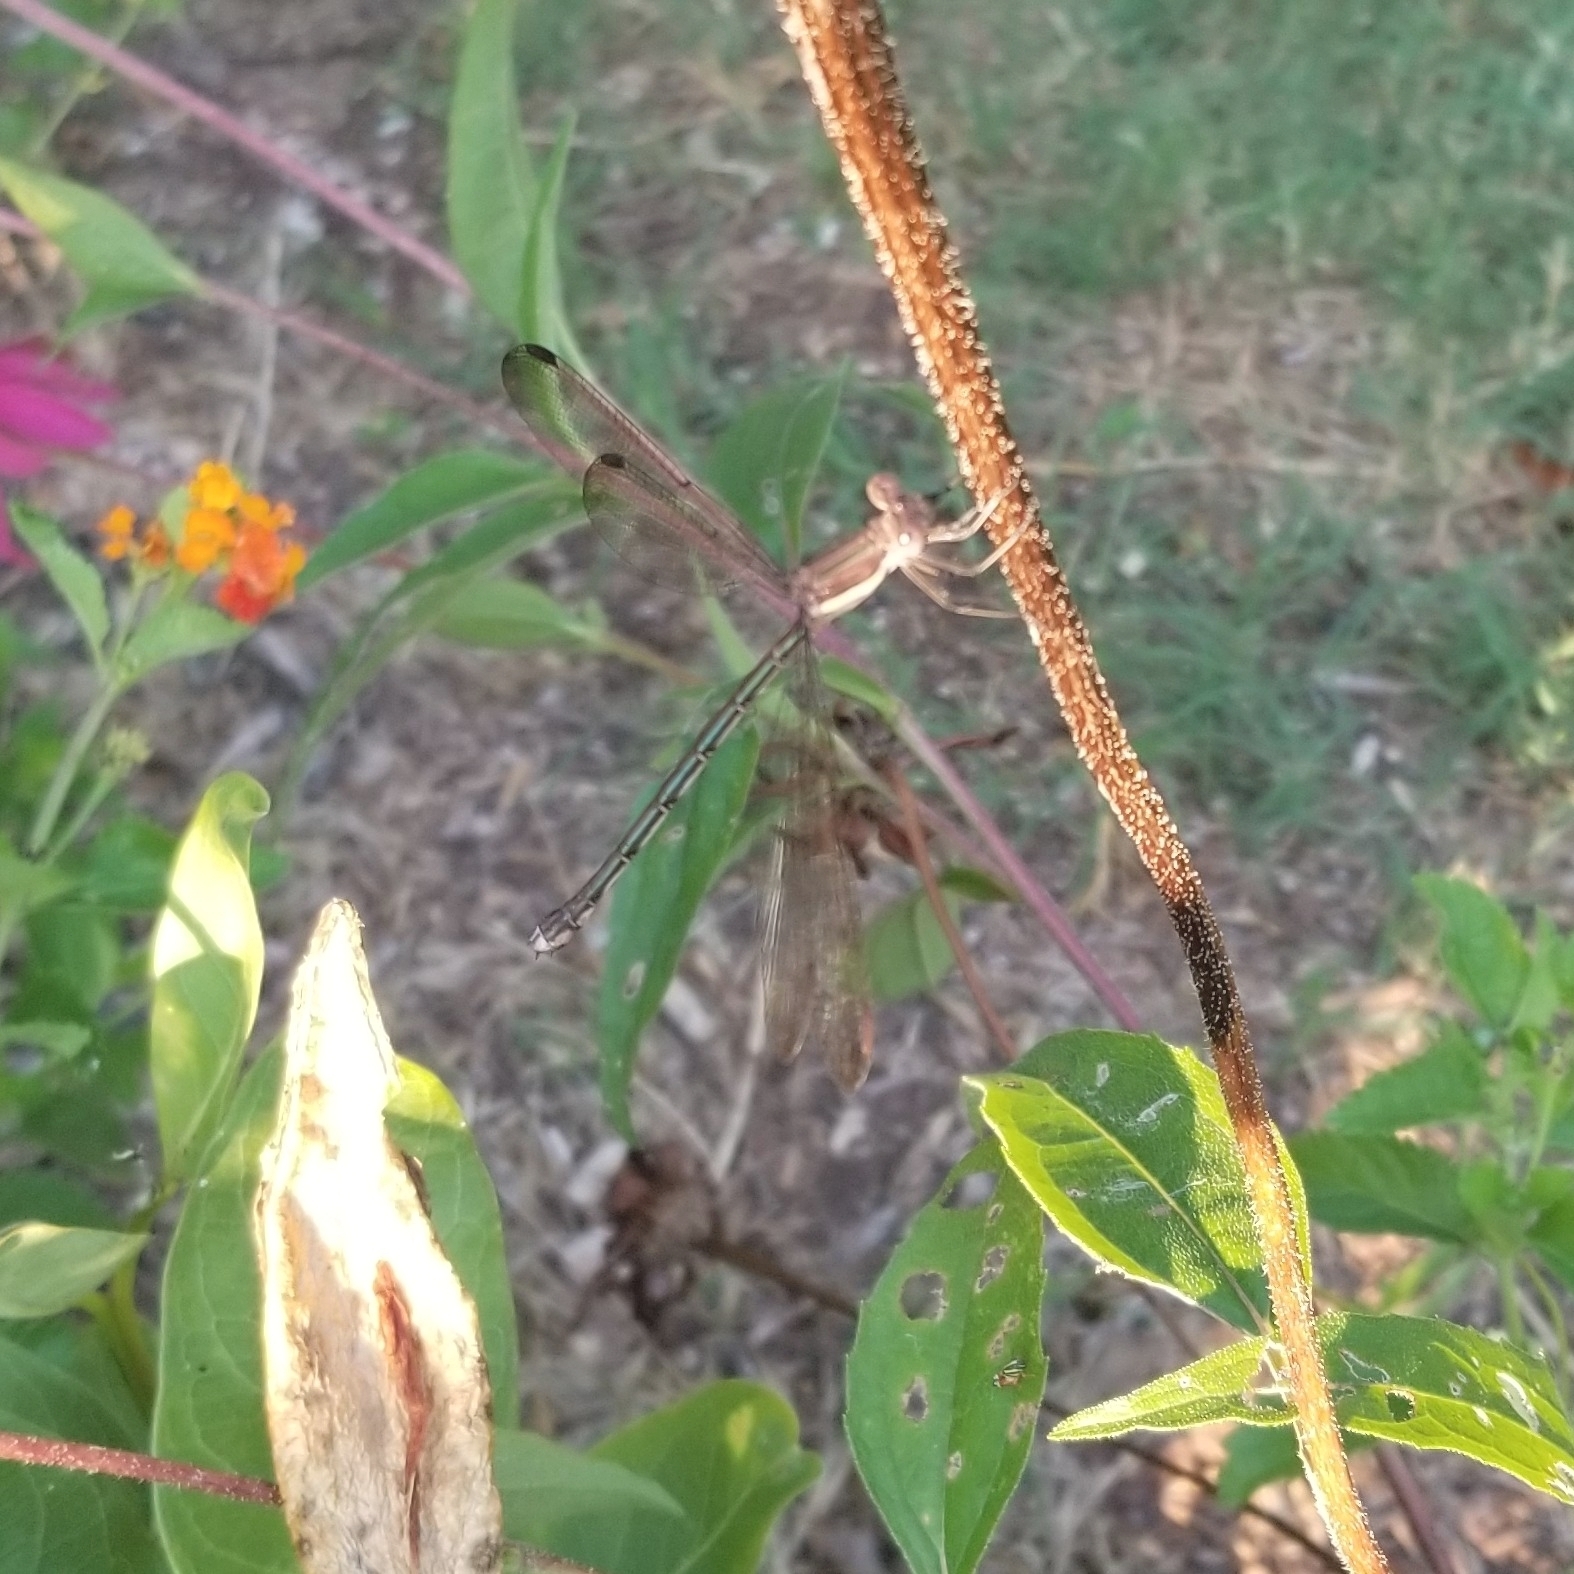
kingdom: Animalia
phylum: Arthropoda
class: Insecta
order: Odonata
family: Lestidae
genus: Archilestes
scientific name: Archilestes grandis
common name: Great spreadwing
